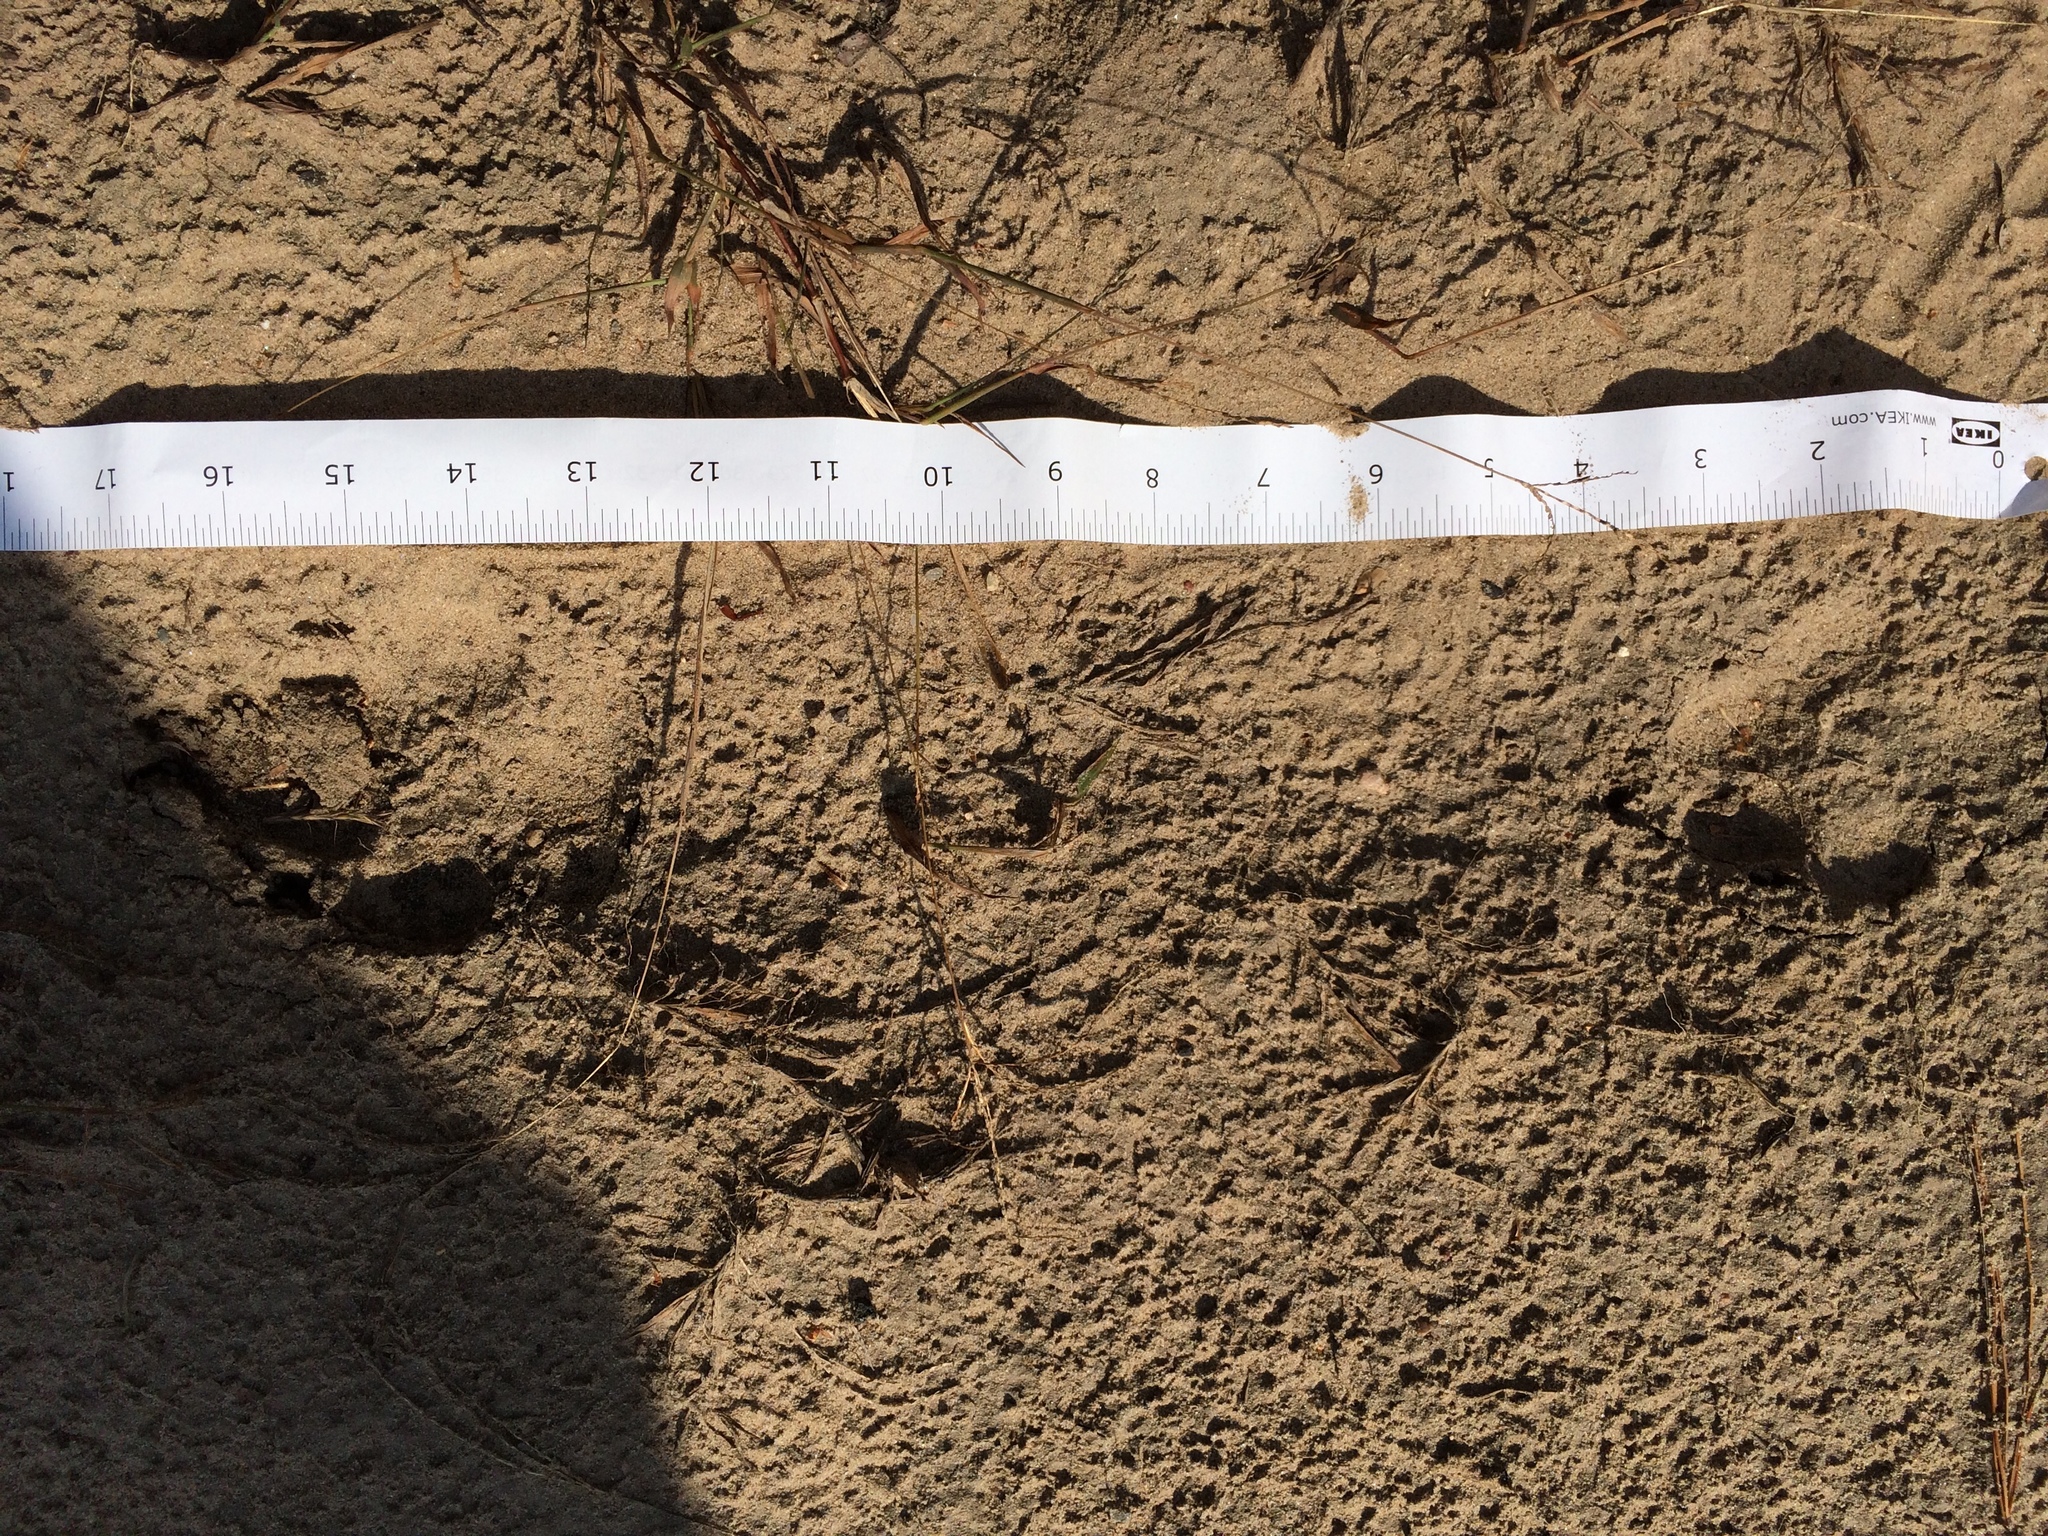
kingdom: Animalia
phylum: Chordata
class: Mammalia
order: Carnivora
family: Canidae
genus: Canis
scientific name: Canis lupus
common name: Gray wolf
